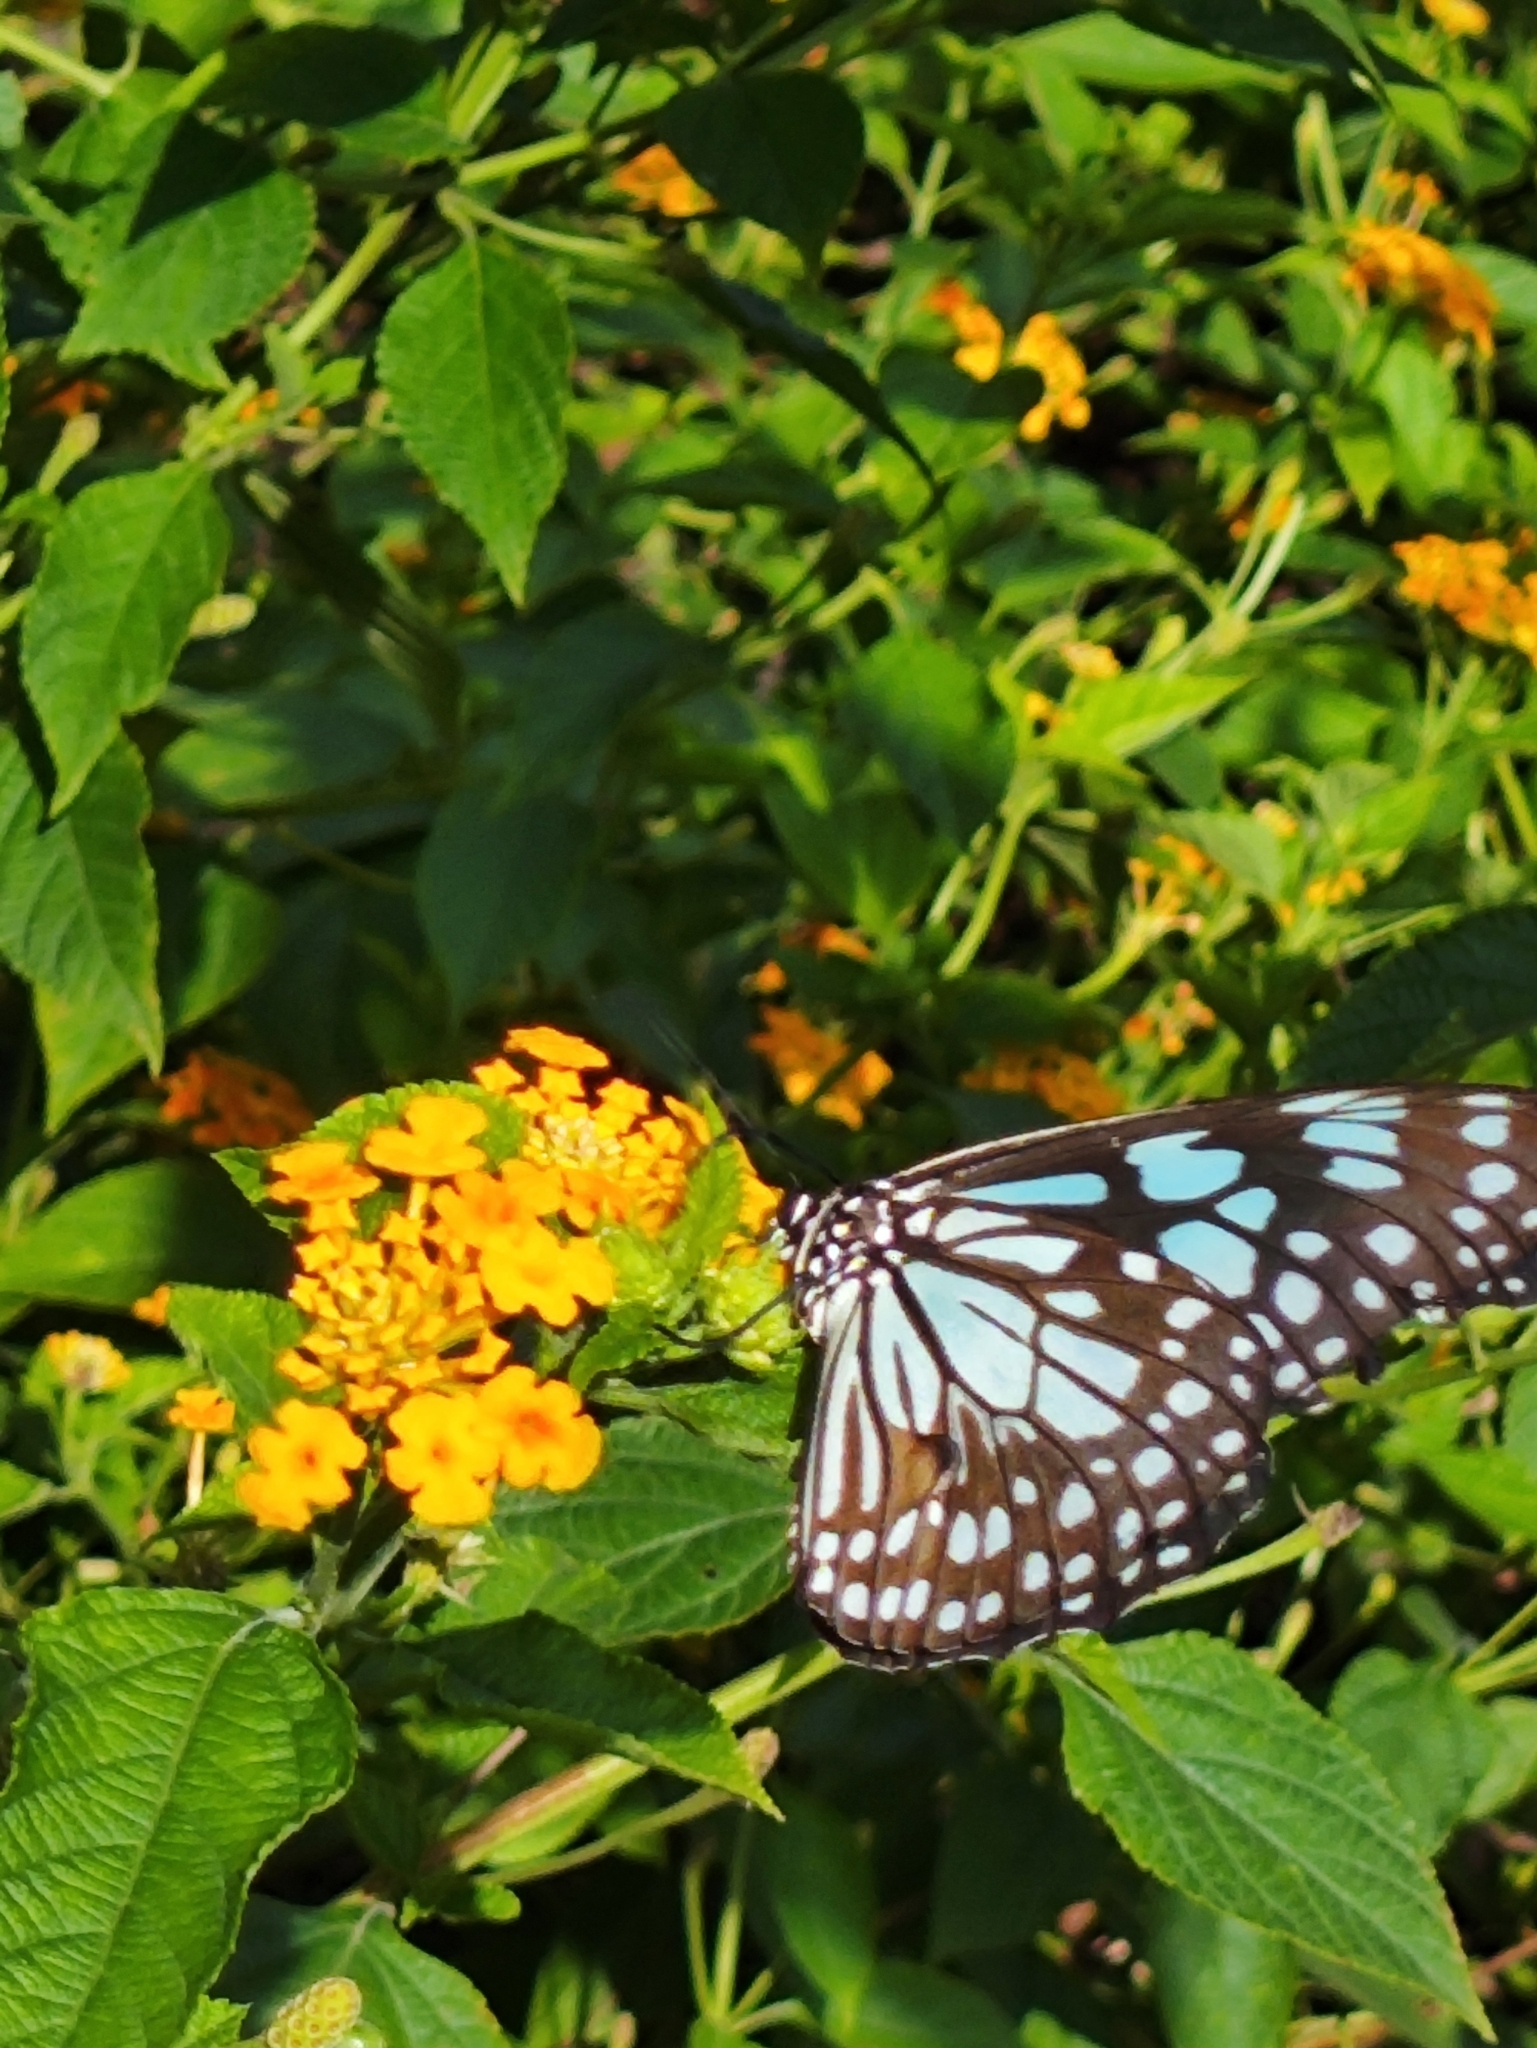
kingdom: Animalia
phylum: Arthropoda
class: Insecta
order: Lepidoptera
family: Nymphalidae
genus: Tirumala
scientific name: Tirumala limniace
